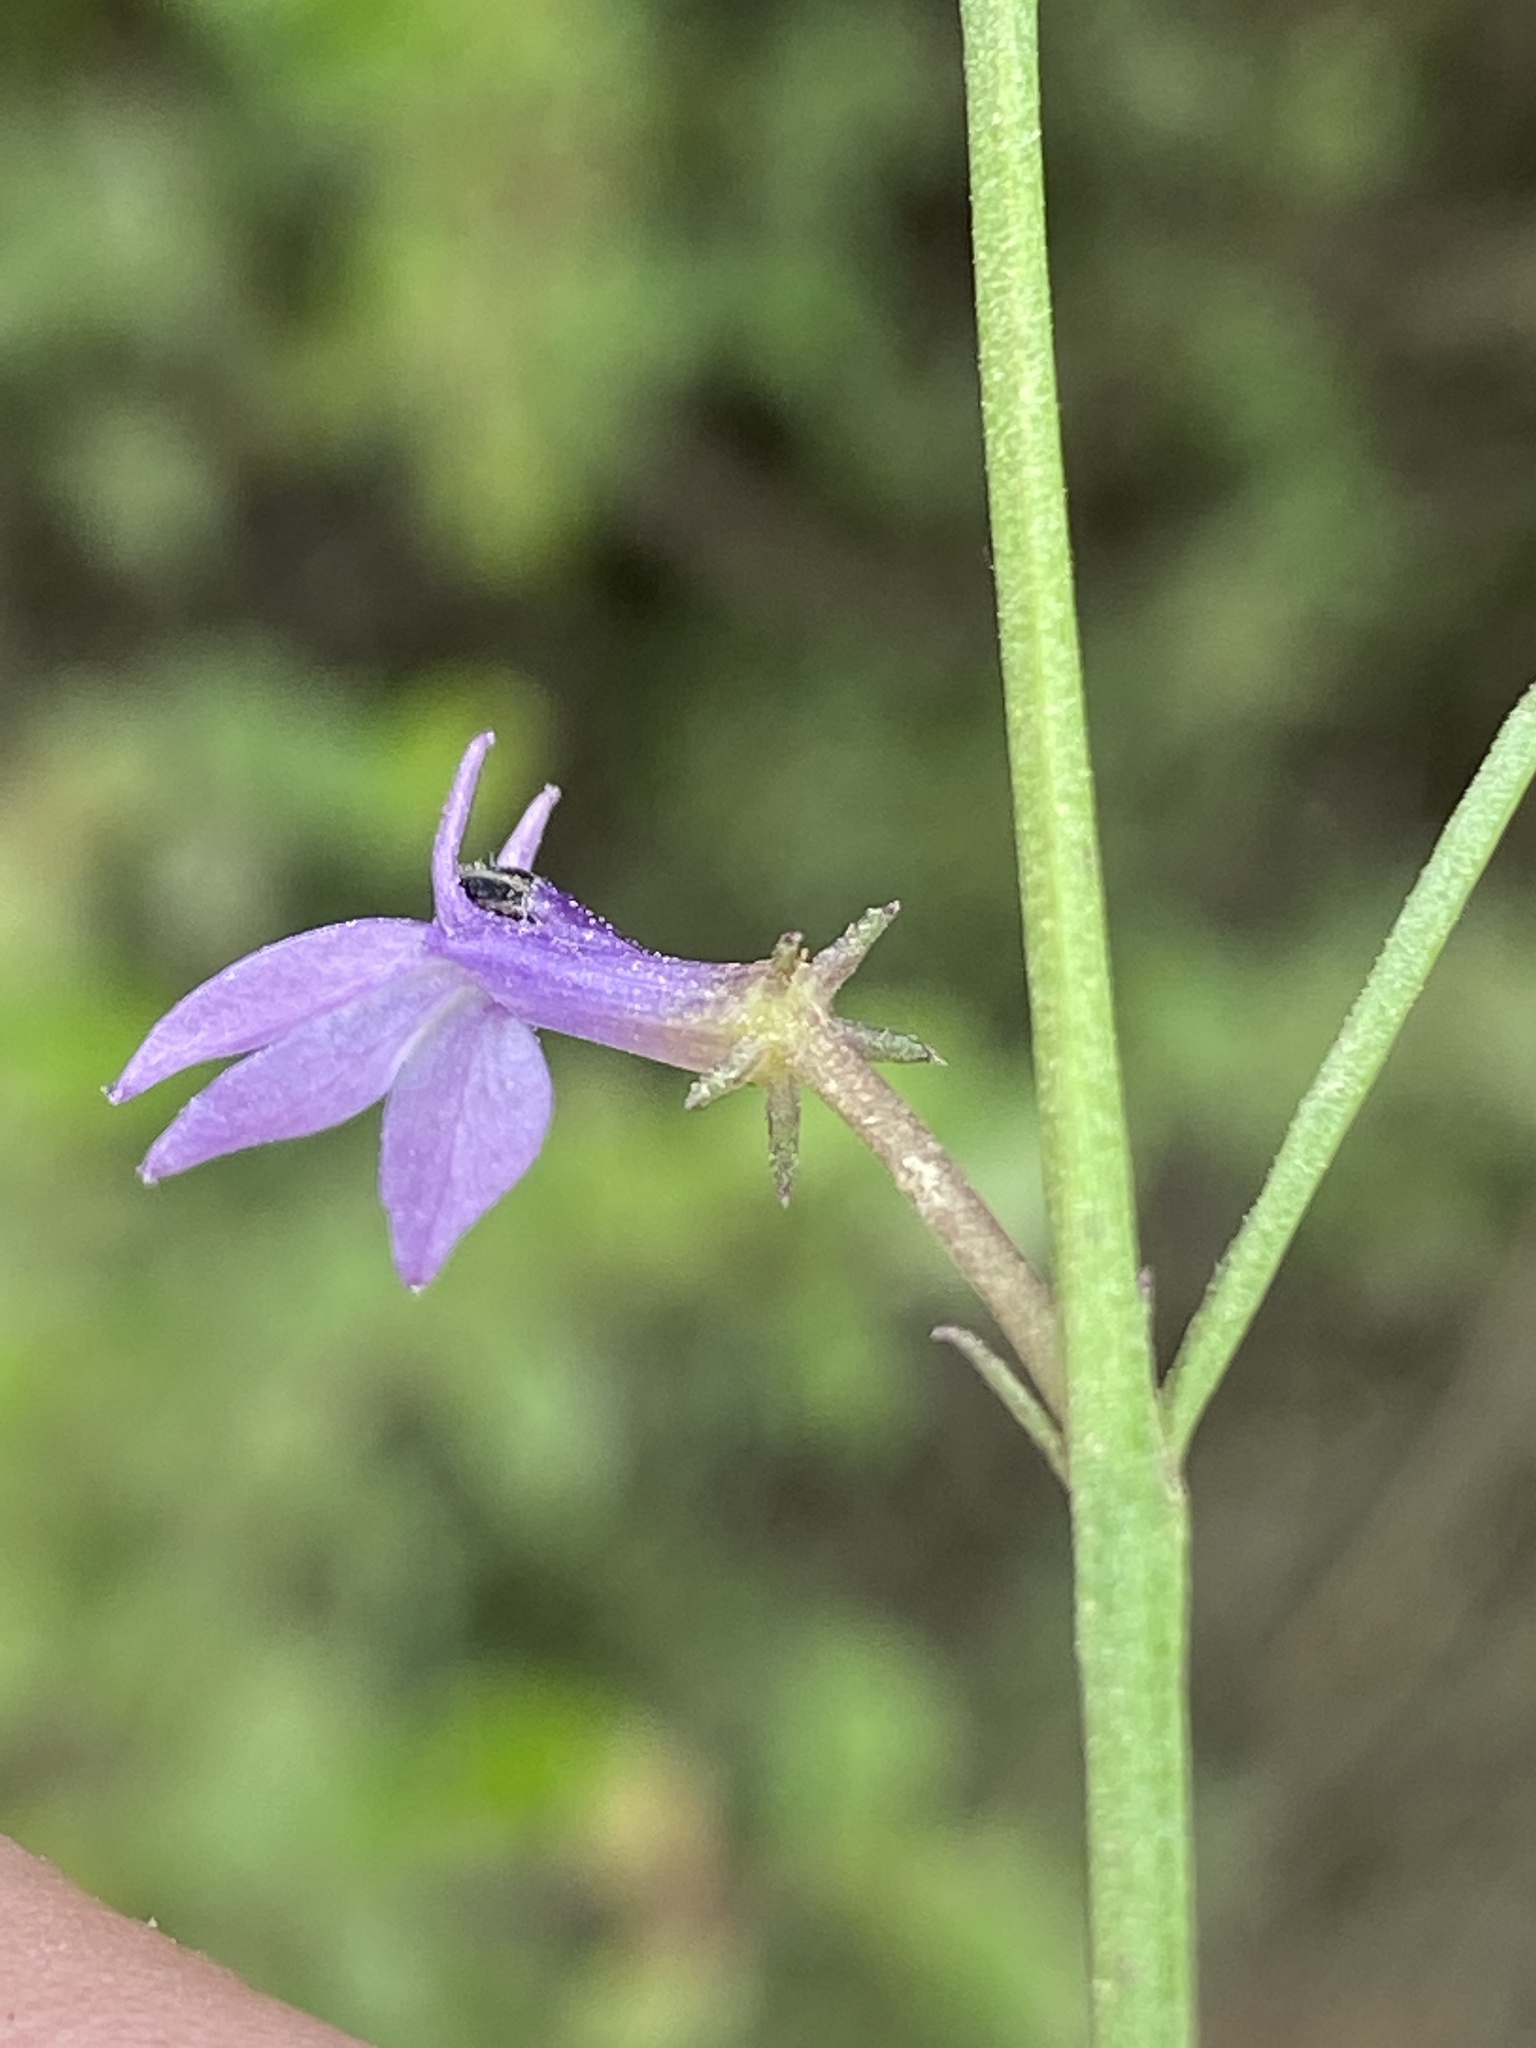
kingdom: Plantae
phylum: Tracheophyta
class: Magnoliopsida
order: Asterales
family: Campanulaceae
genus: Grammatotheca
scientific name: Grammatotheca bergiana
